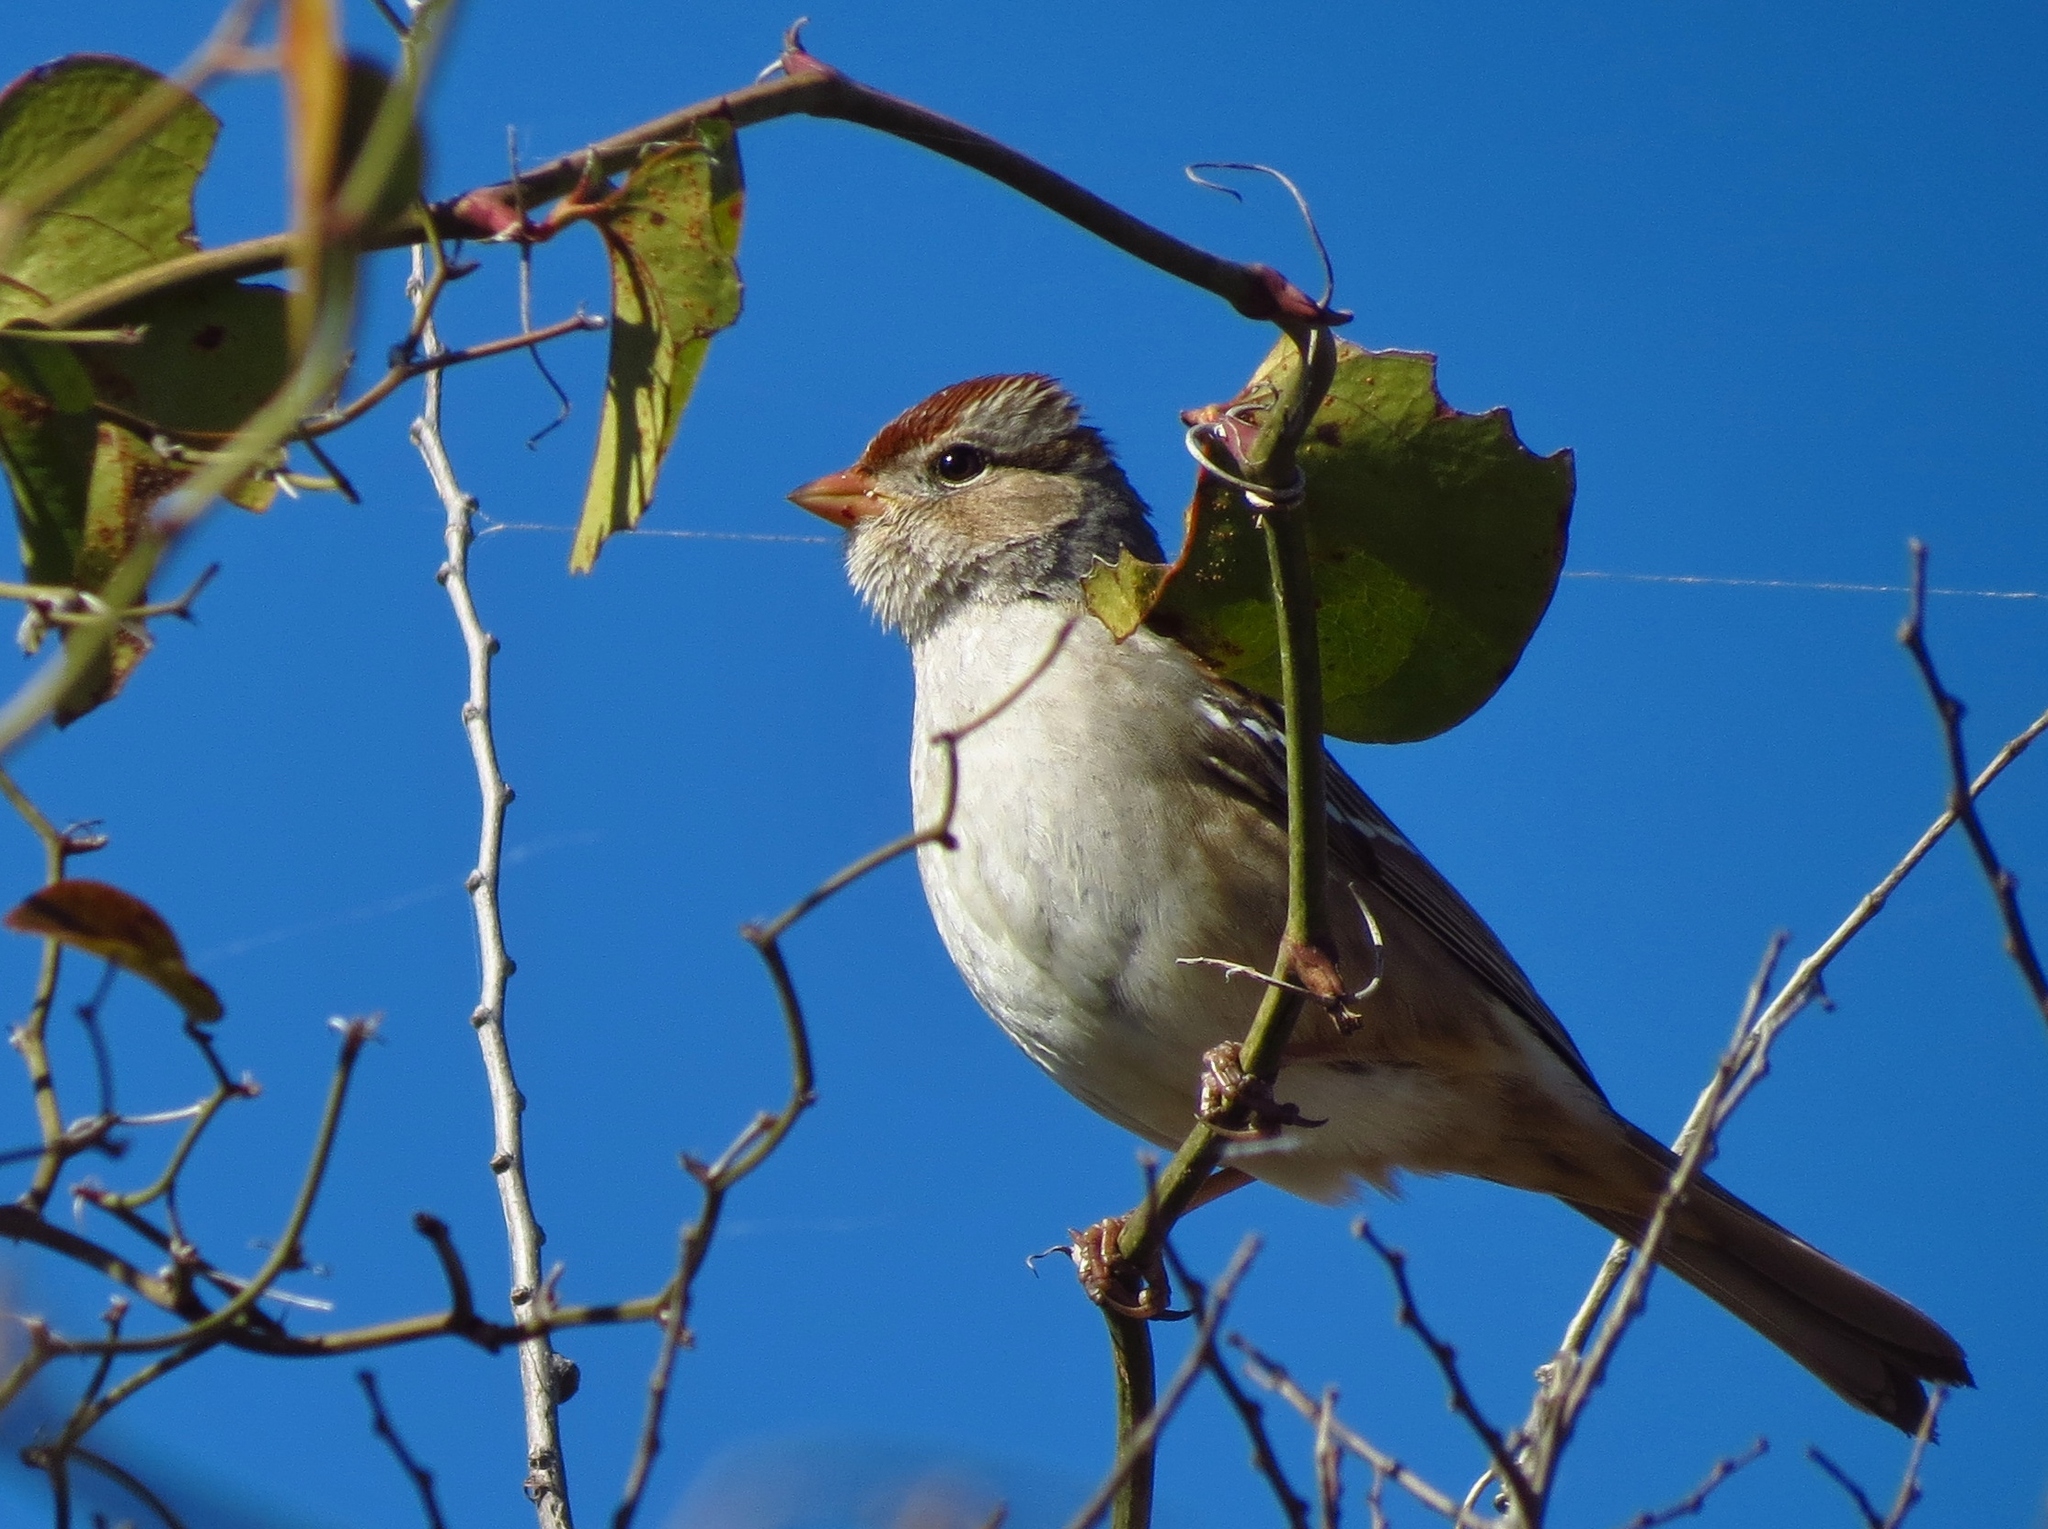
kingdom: Animalia
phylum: Chordata
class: Aves
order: Passeriformes
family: Passerellidae
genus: Zonotrichia
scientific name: Zonotrichia leucophrys
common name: White-crowned sparrow
